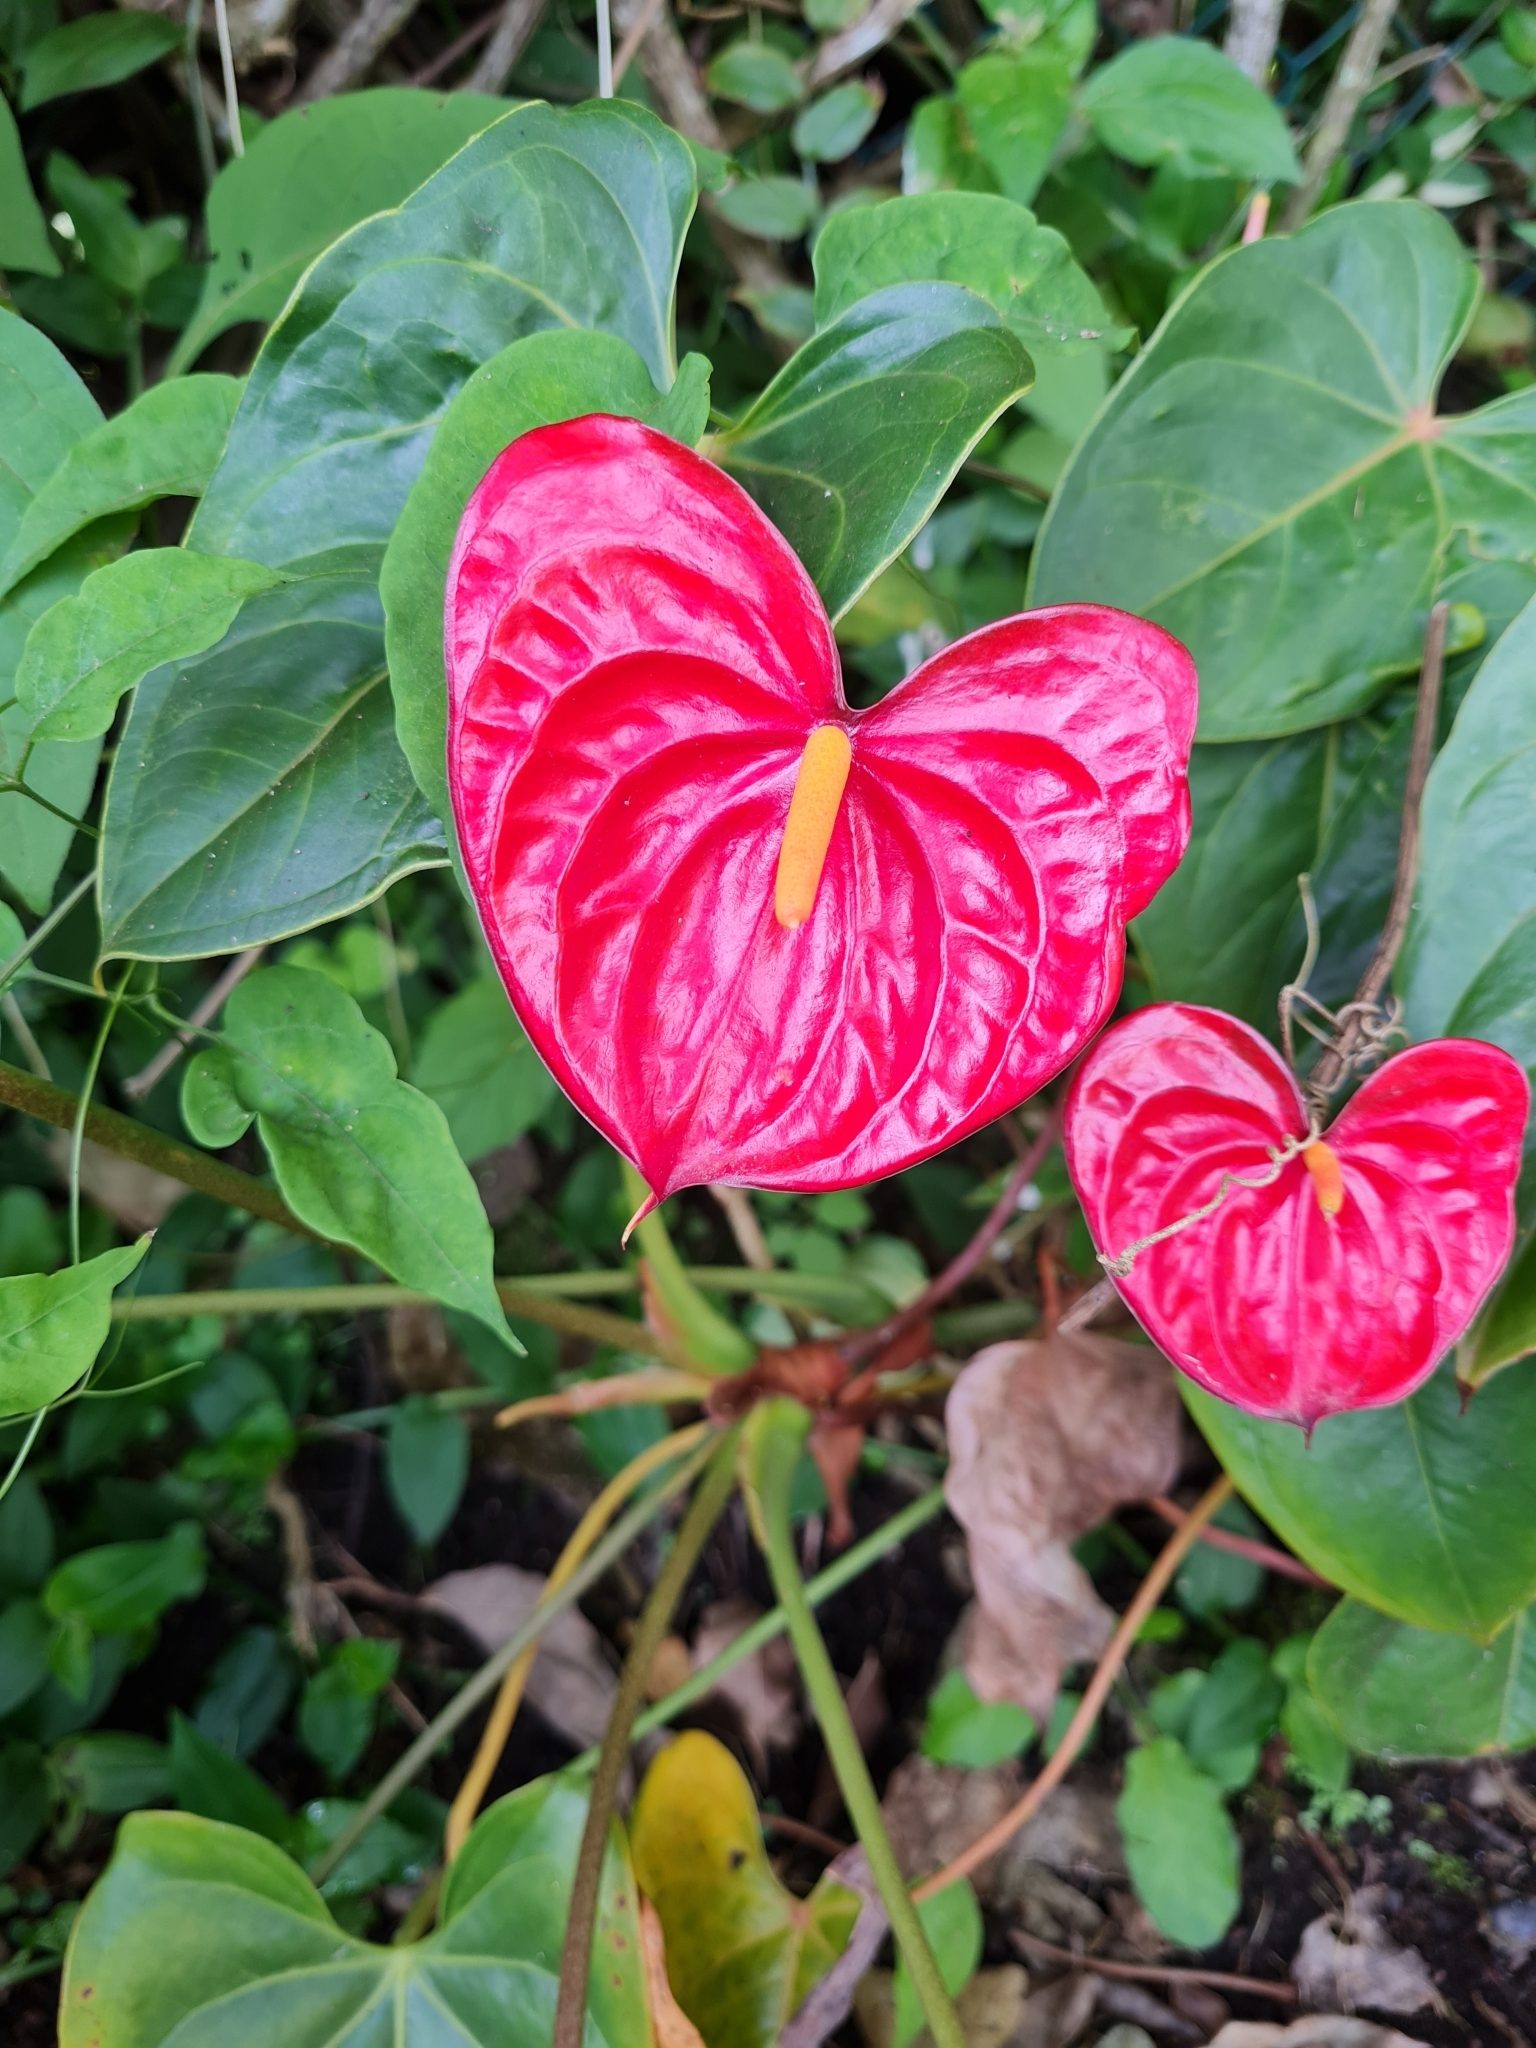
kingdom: Plantae
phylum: Tracheophyta
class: Liliopsida
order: Alismatales
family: Araceae
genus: Anthurium
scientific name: Anthurium andraeanum
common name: Flamingo-flower
